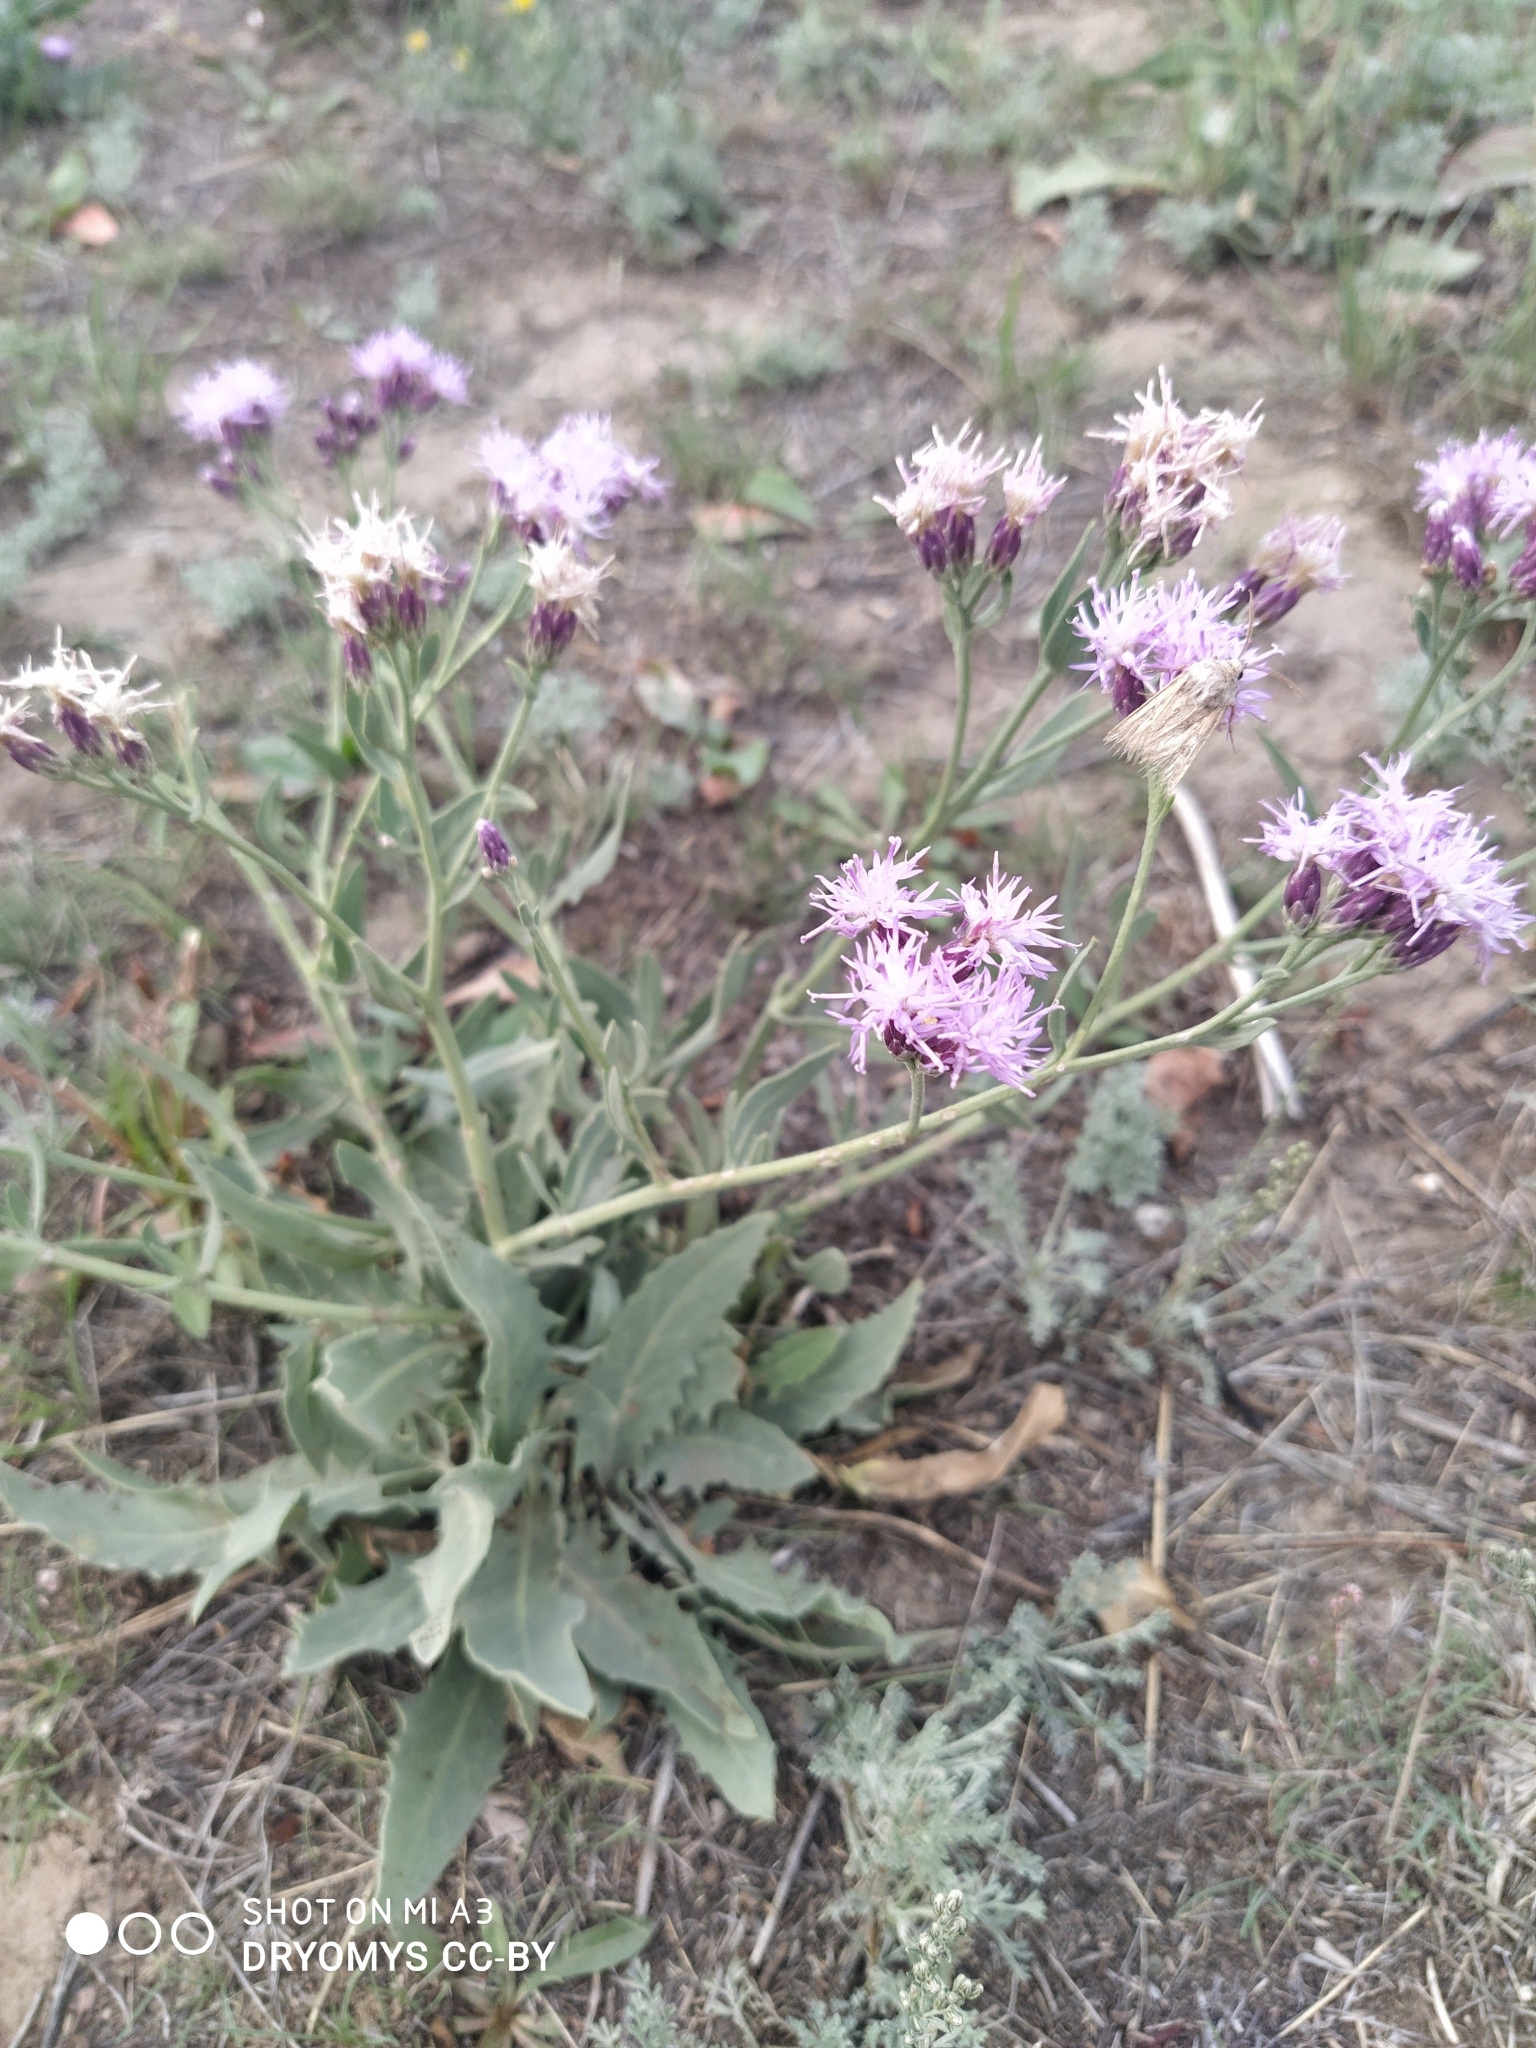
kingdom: Plantae
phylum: Tracheophyta
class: Magnoliopsida
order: Asterales
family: Asteraceae
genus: Saussurea
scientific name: Saussurea salsa
